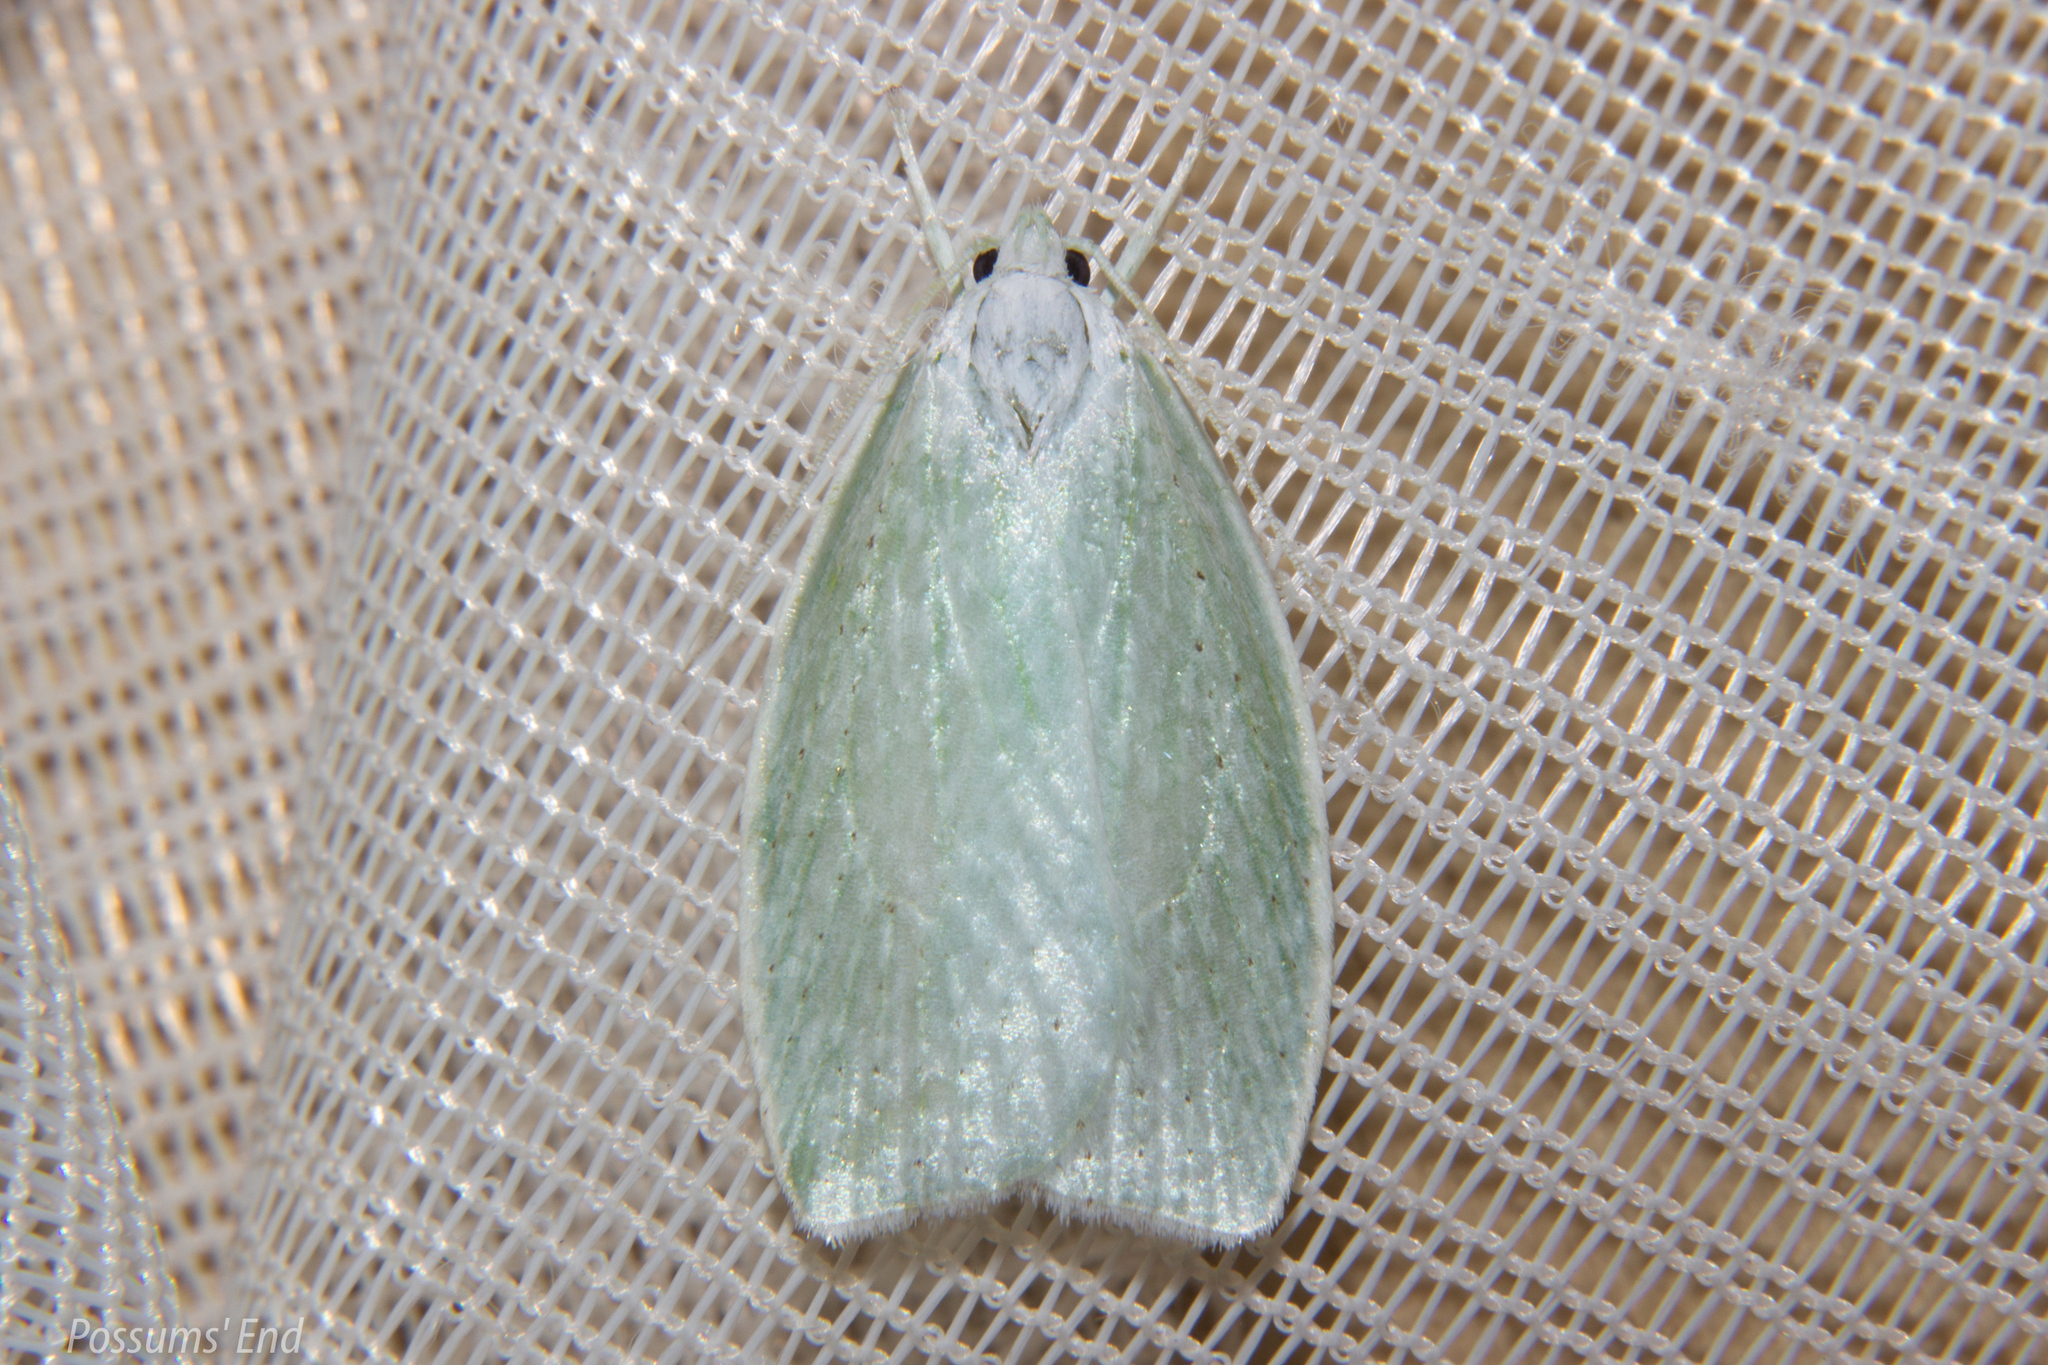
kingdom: Animalia
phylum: Arthropoda
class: Insecta
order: Lepidoptera
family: Oecophoridae
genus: Nymphostola
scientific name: Nymphostola galactina
